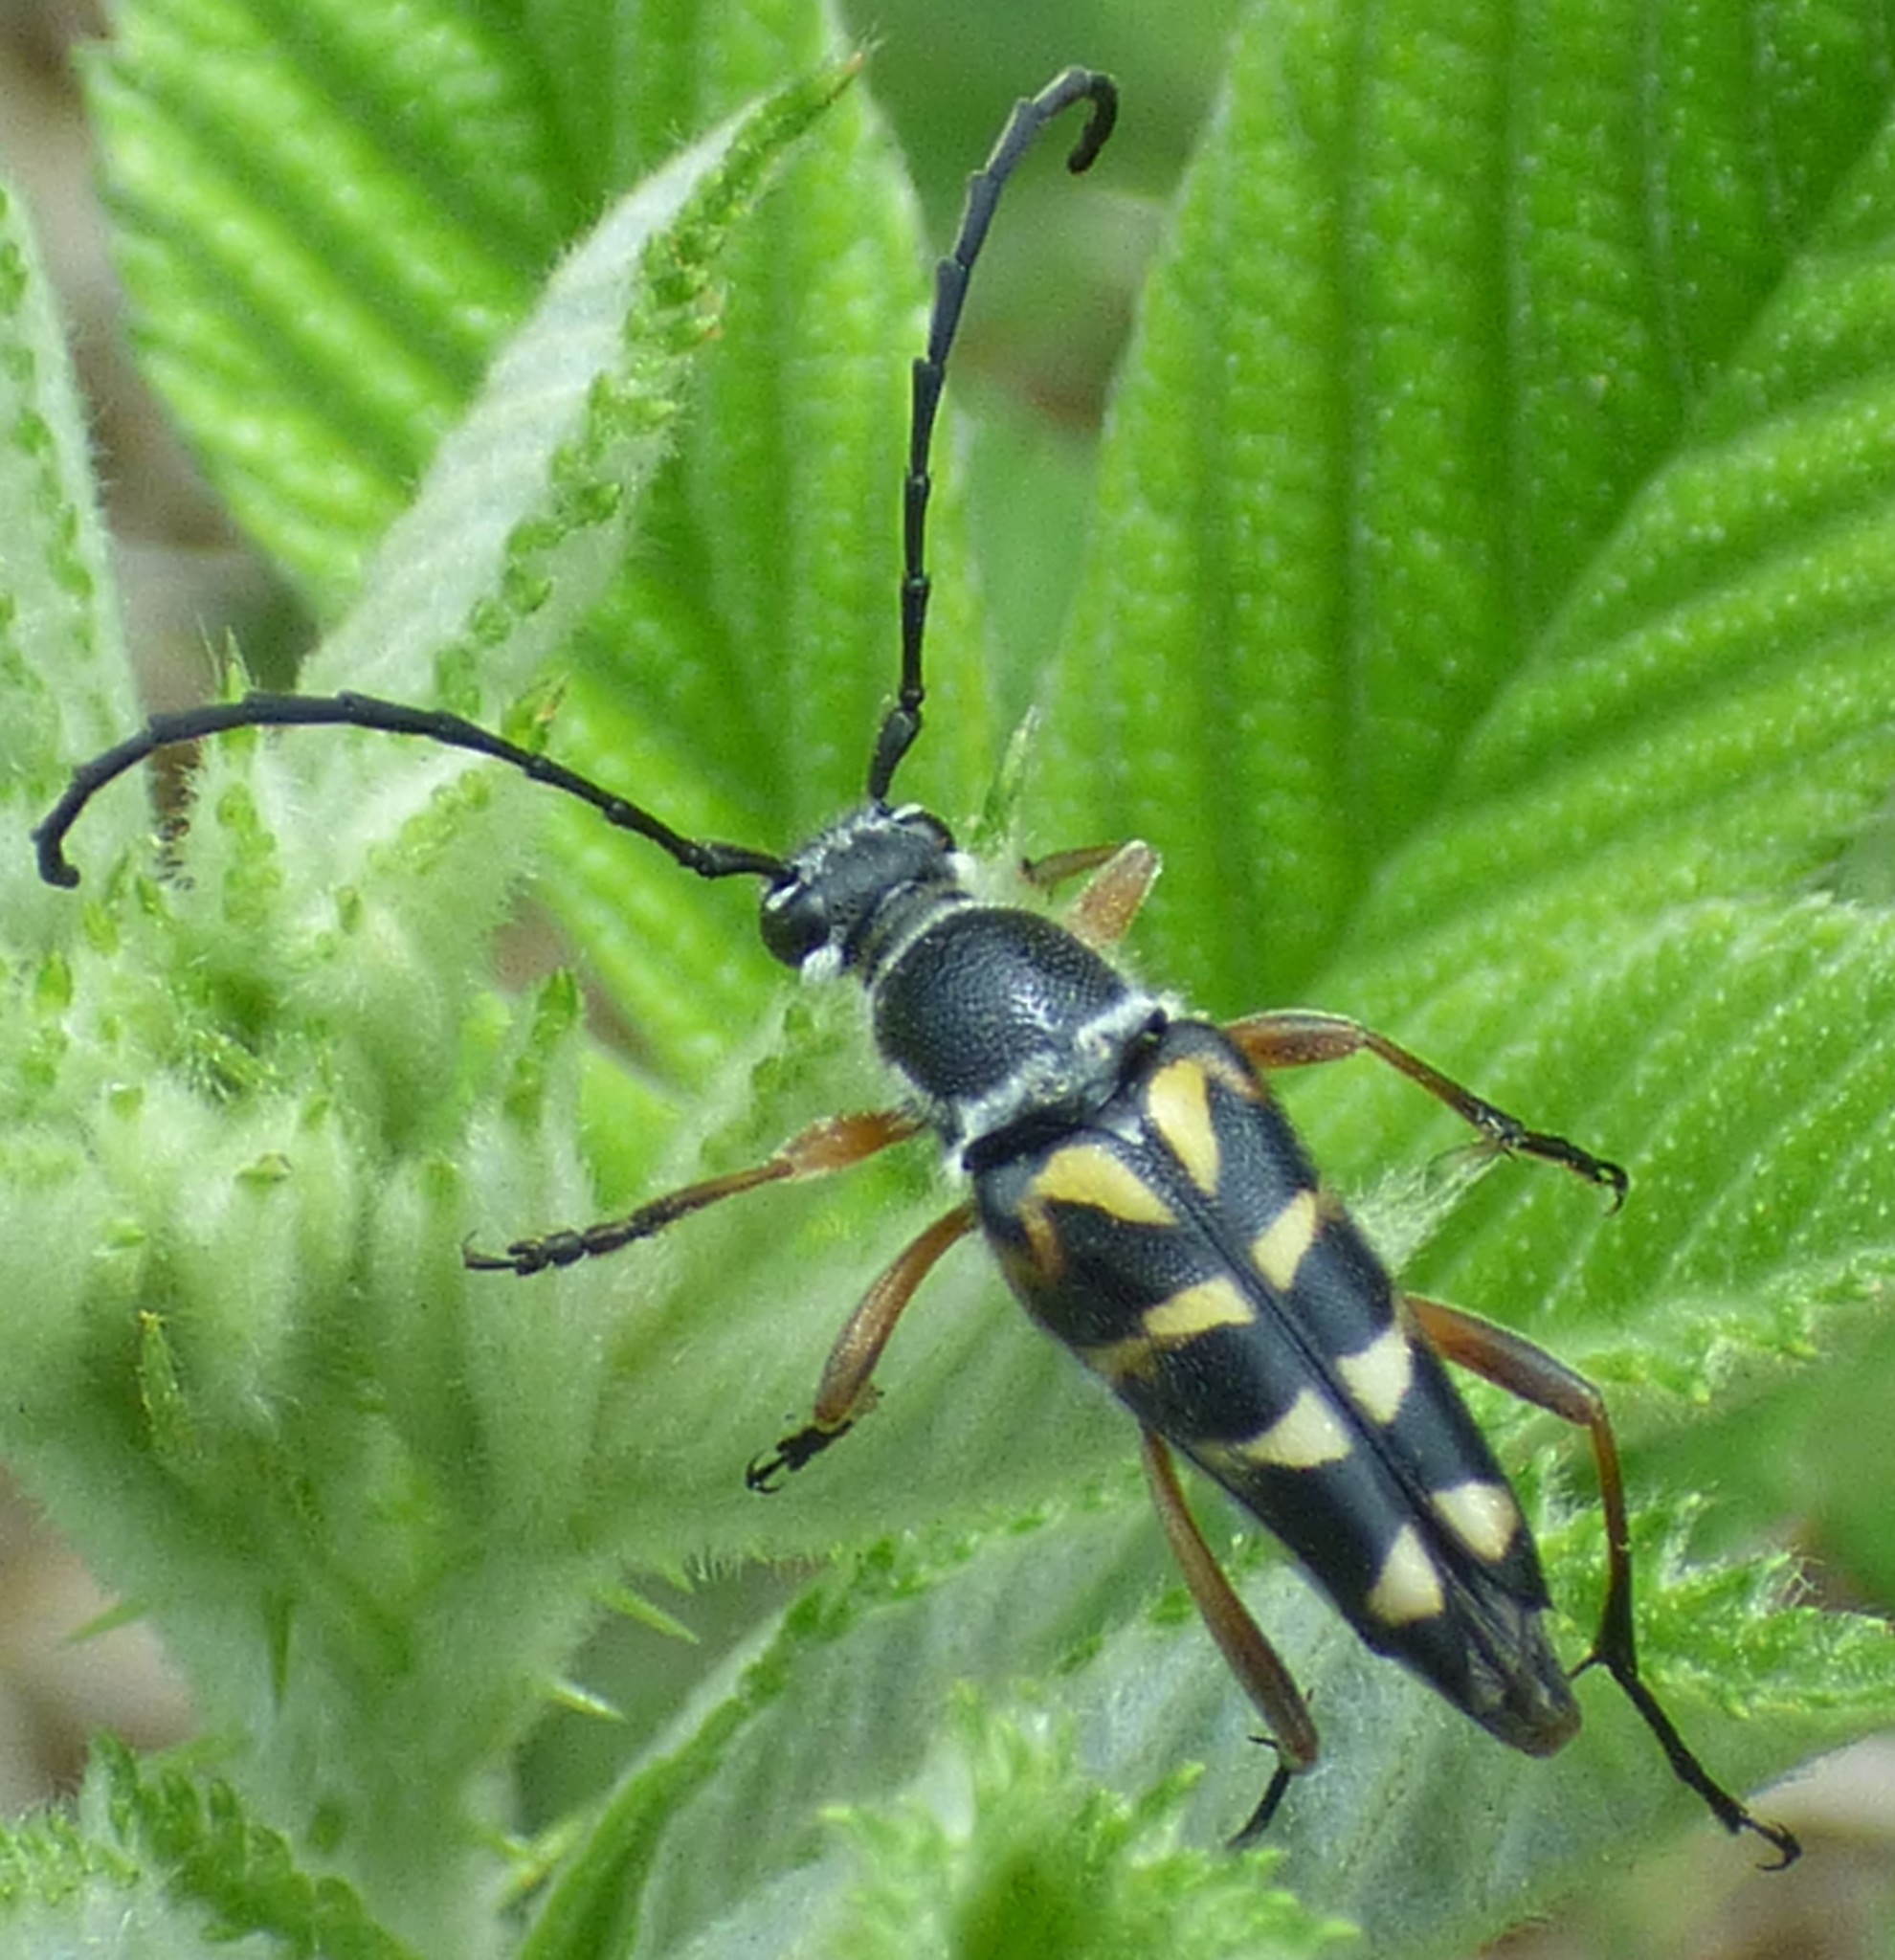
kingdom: Animalia
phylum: Arthropoda
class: Insecta
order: Coleoptera
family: Cerambycidae
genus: Typocerus
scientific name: Typocerus zebra
